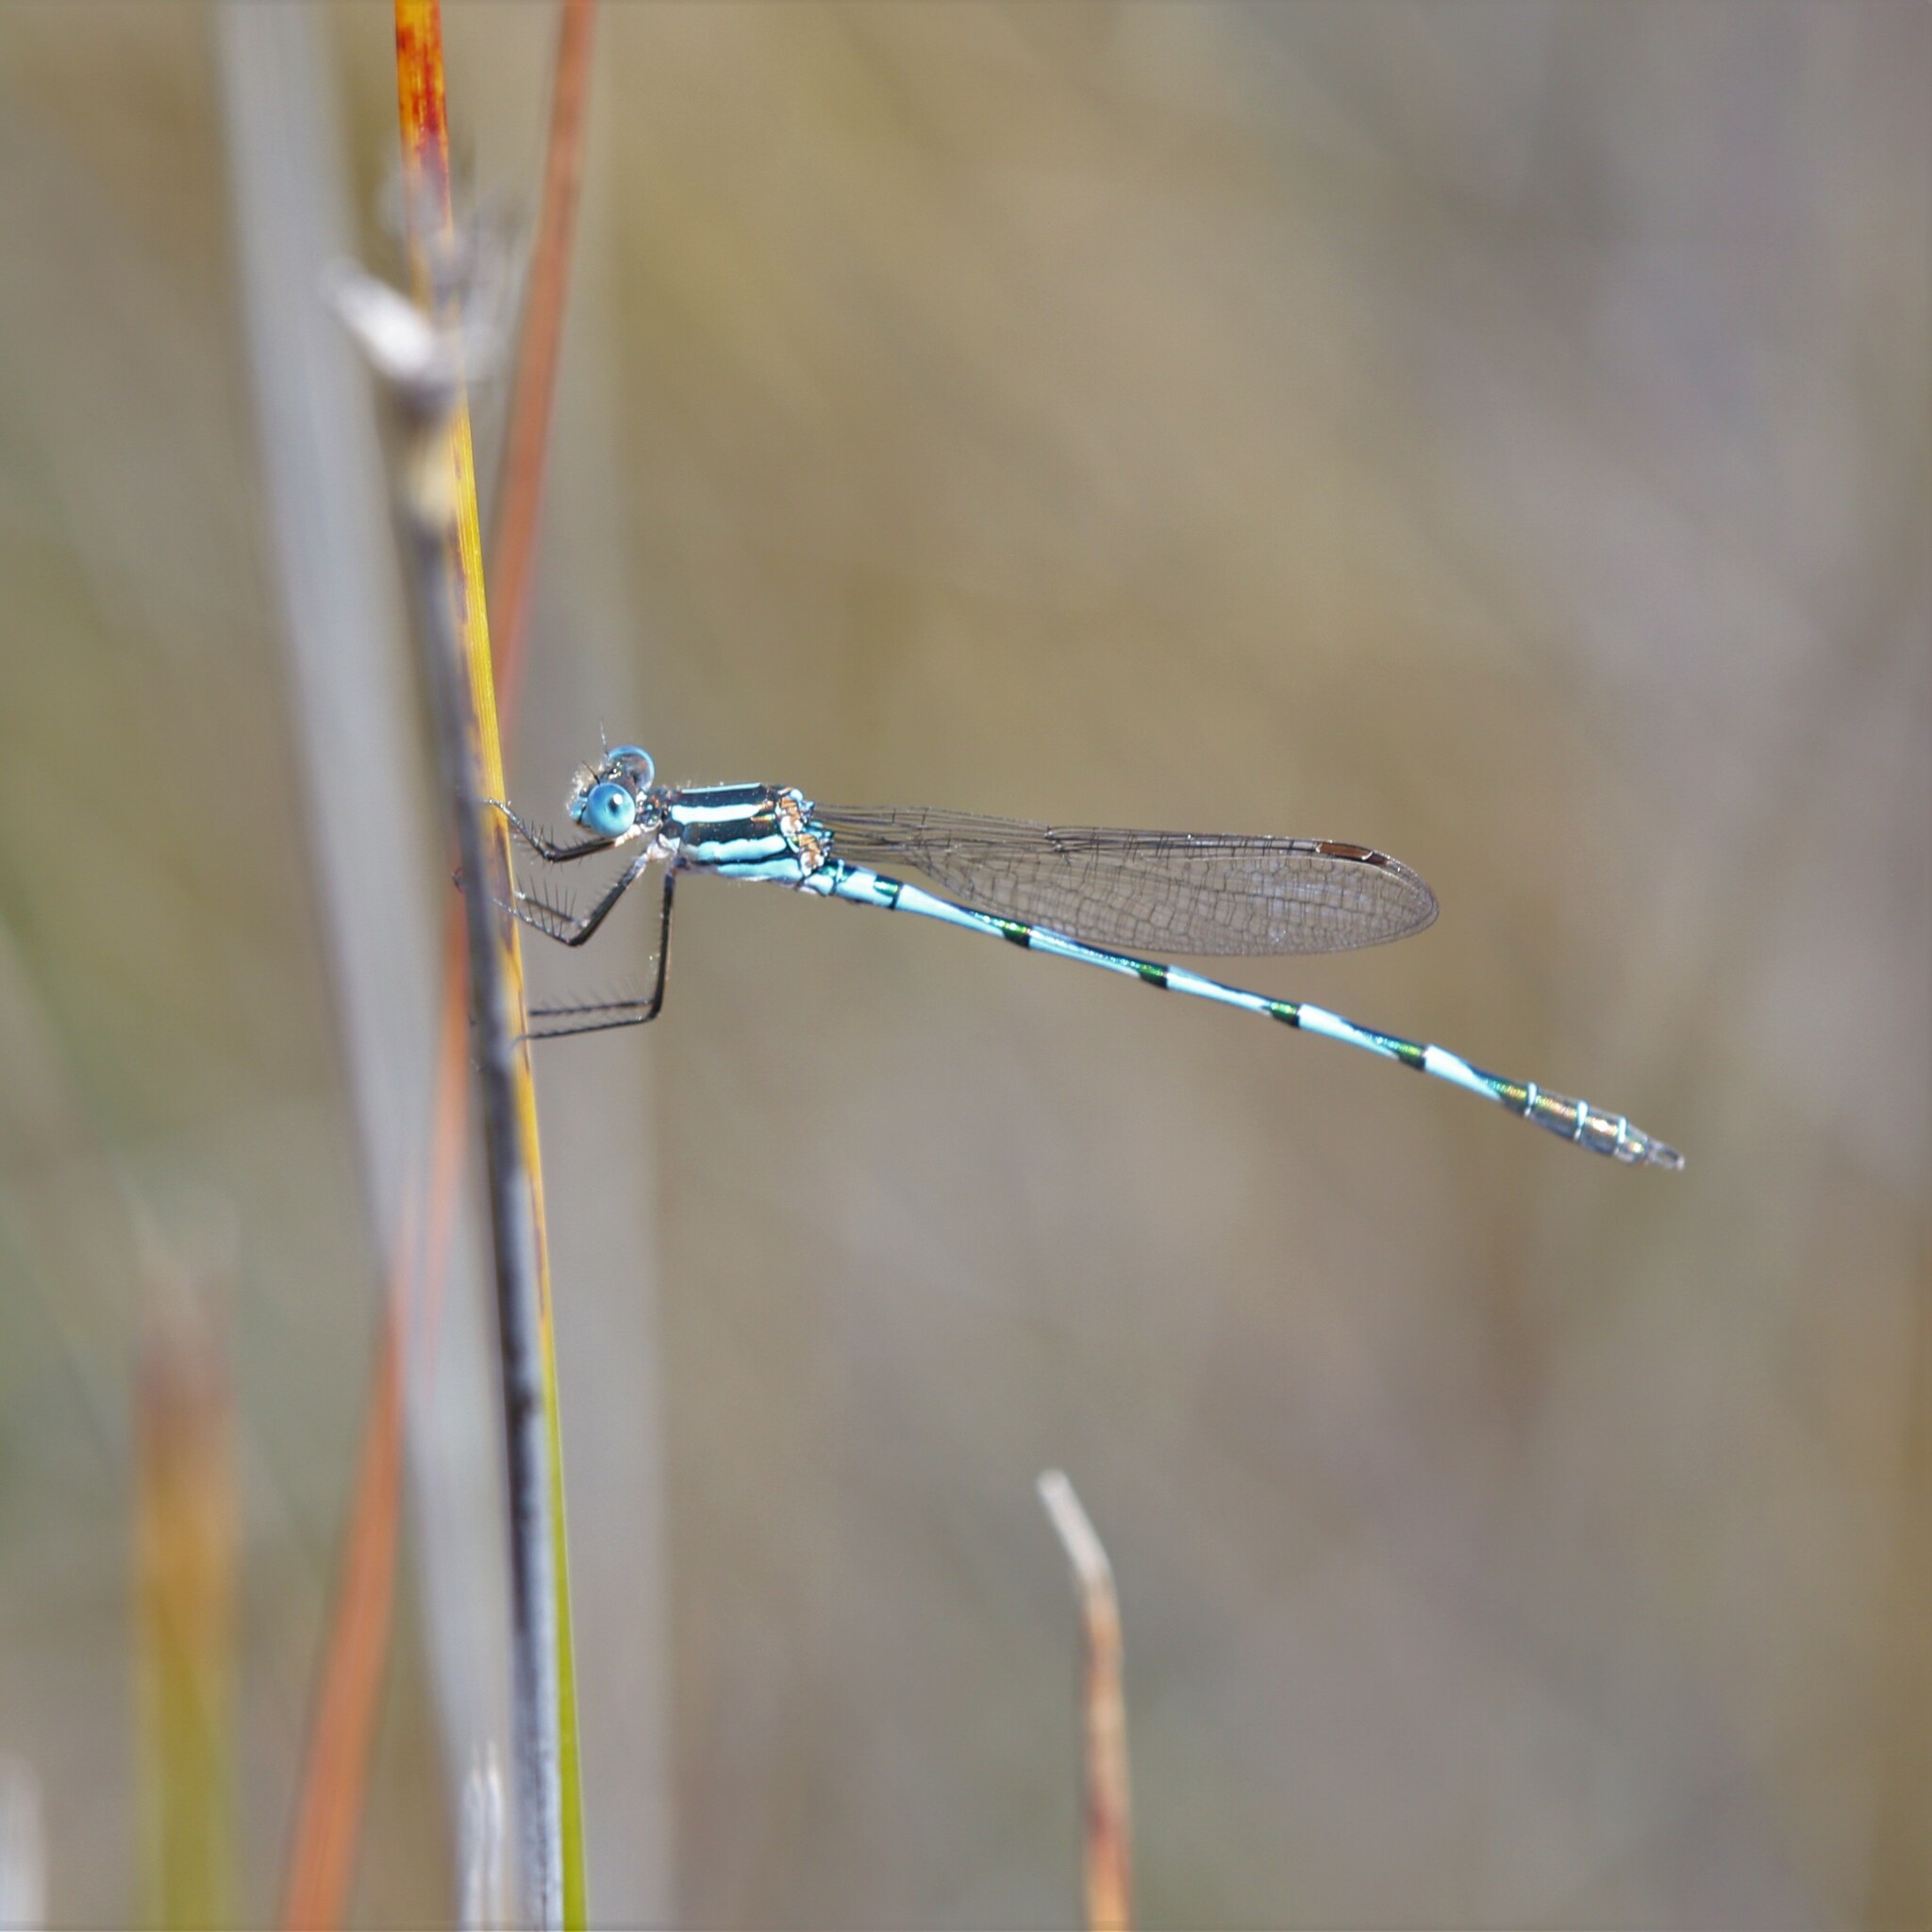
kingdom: Animalia
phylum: Arthropoda
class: Insecta
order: Odonata
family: Lestidae
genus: Austrolestes
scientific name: Austrolestes annulosus
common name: Blue ringtail
